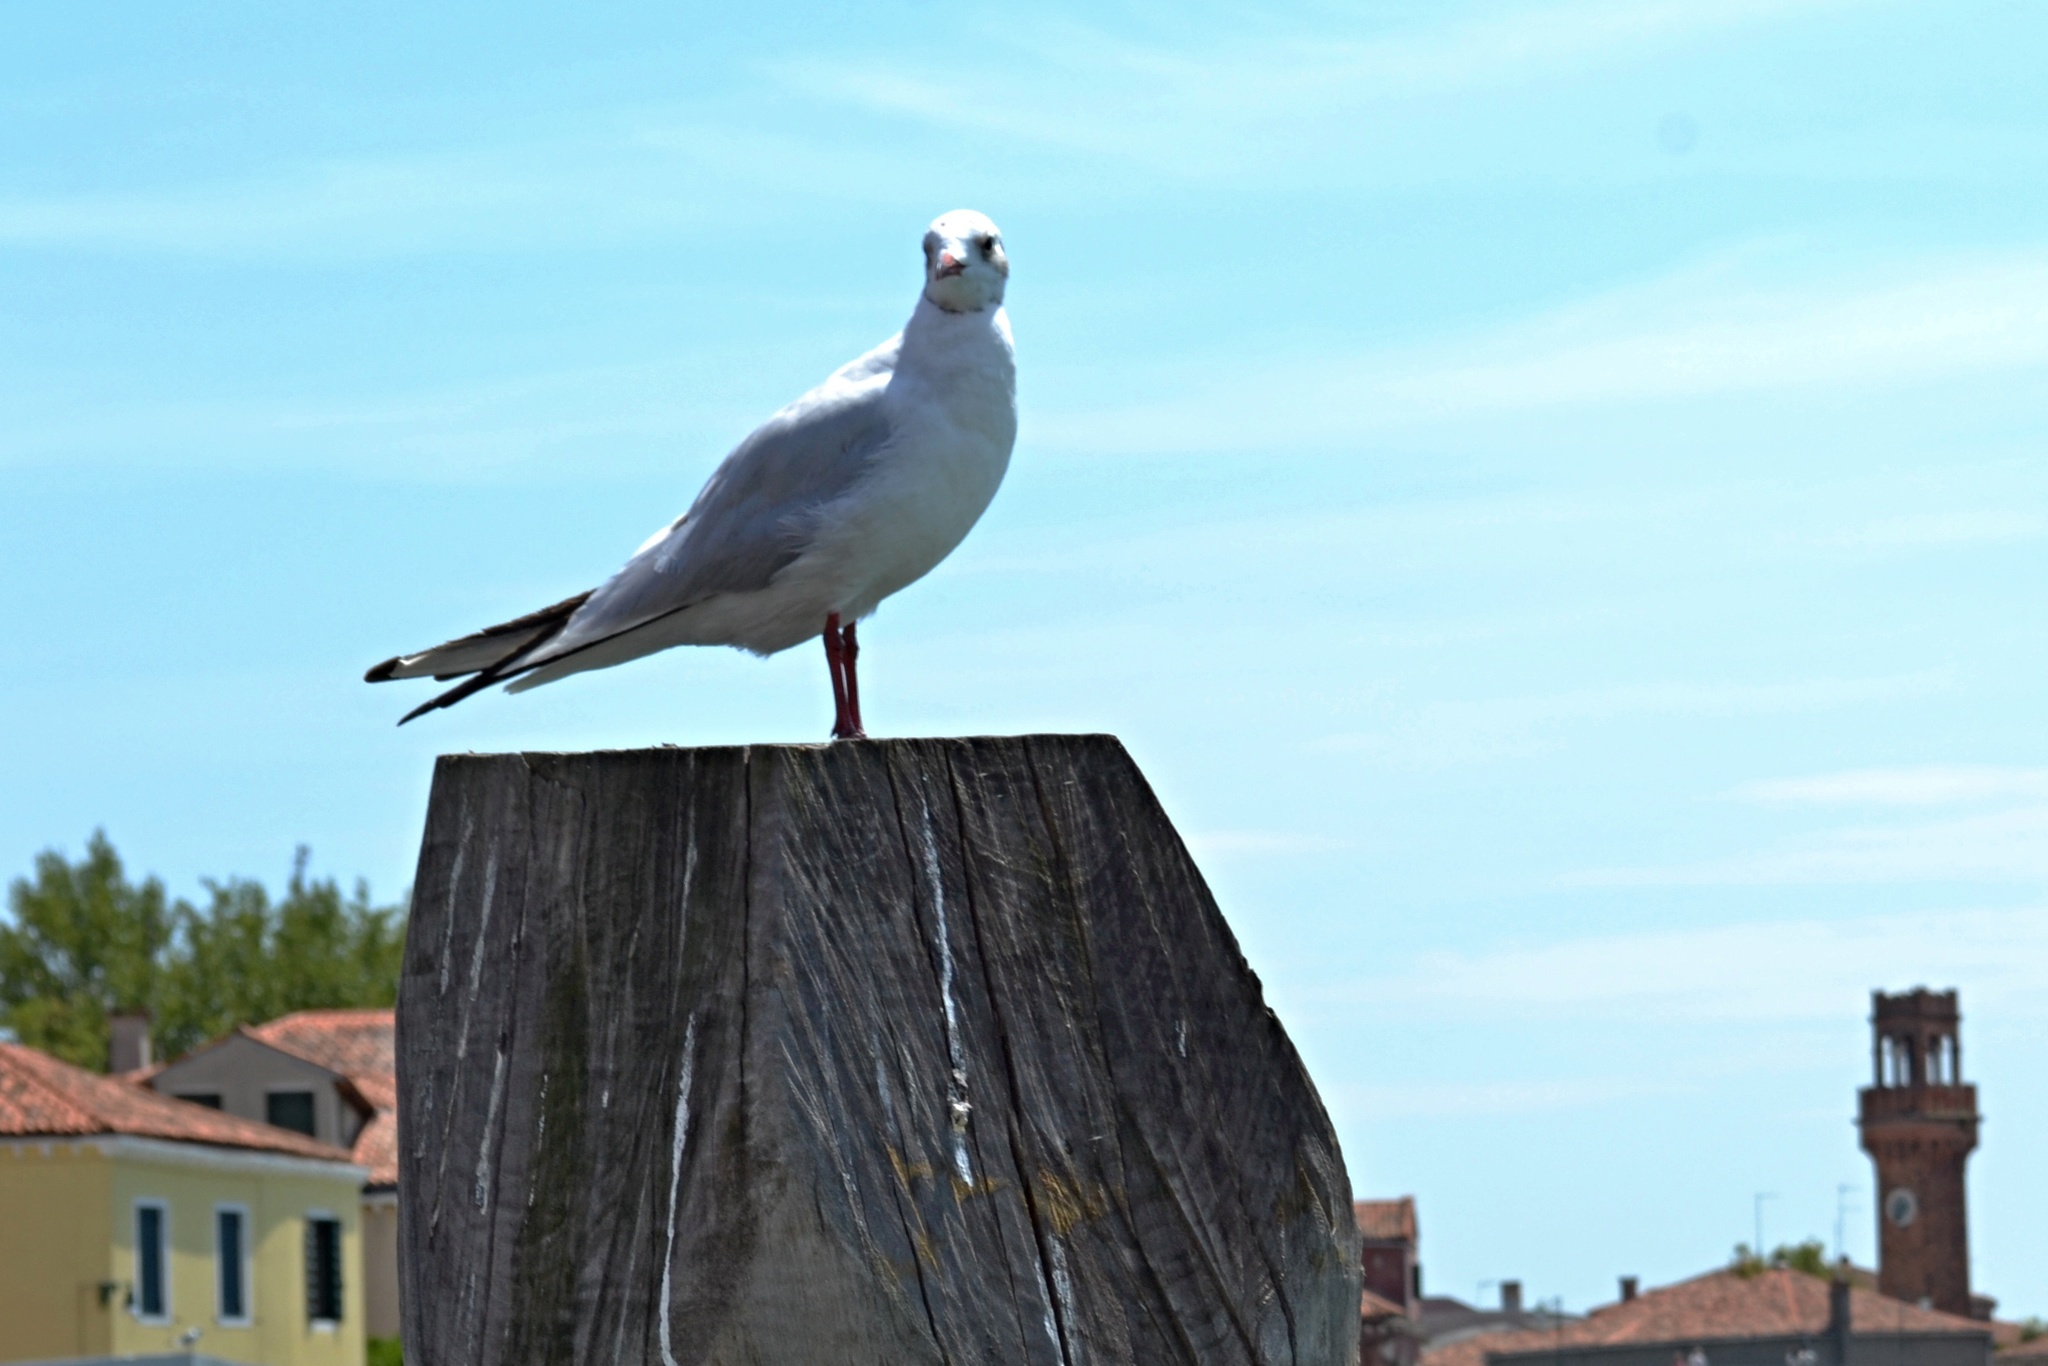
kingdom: Animalia
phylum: Chordata
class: Aves
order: Charadriiformes
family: Laridae
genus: Chroicocephalus
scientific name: Chroicocephalus ridibundus
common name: Black-headed gull
